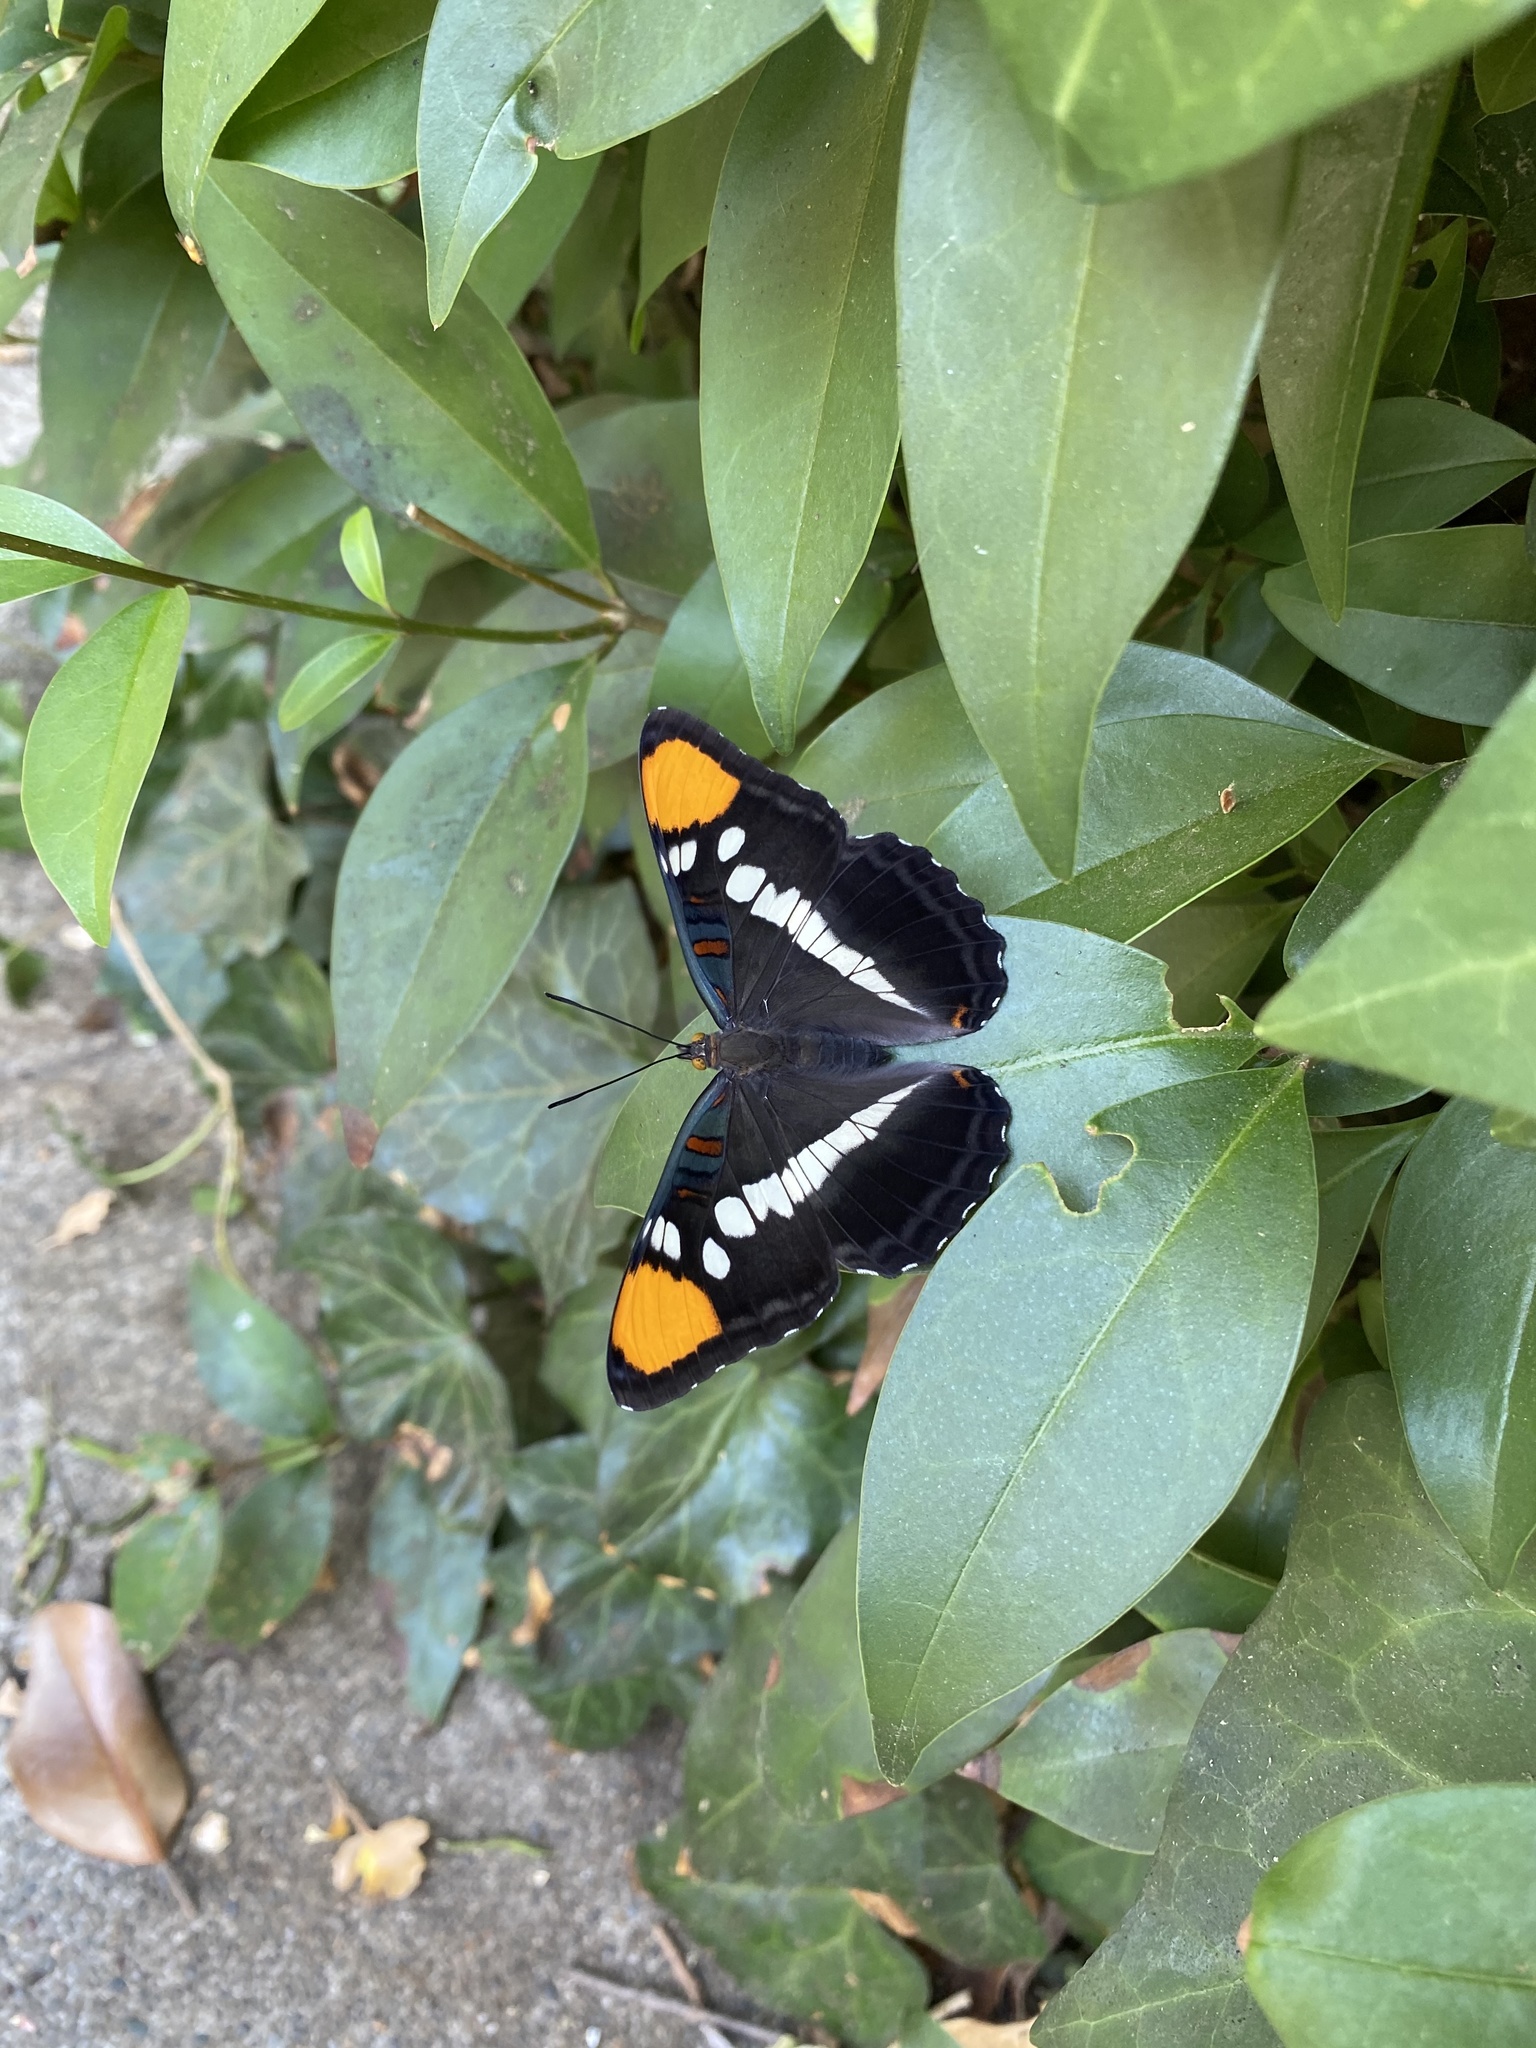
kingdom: Animalia
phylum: Arthropoda
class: Insecta
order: Lepidoptera
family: Nymphalidae
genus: Limenitis
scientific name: Limenitis bredowii
